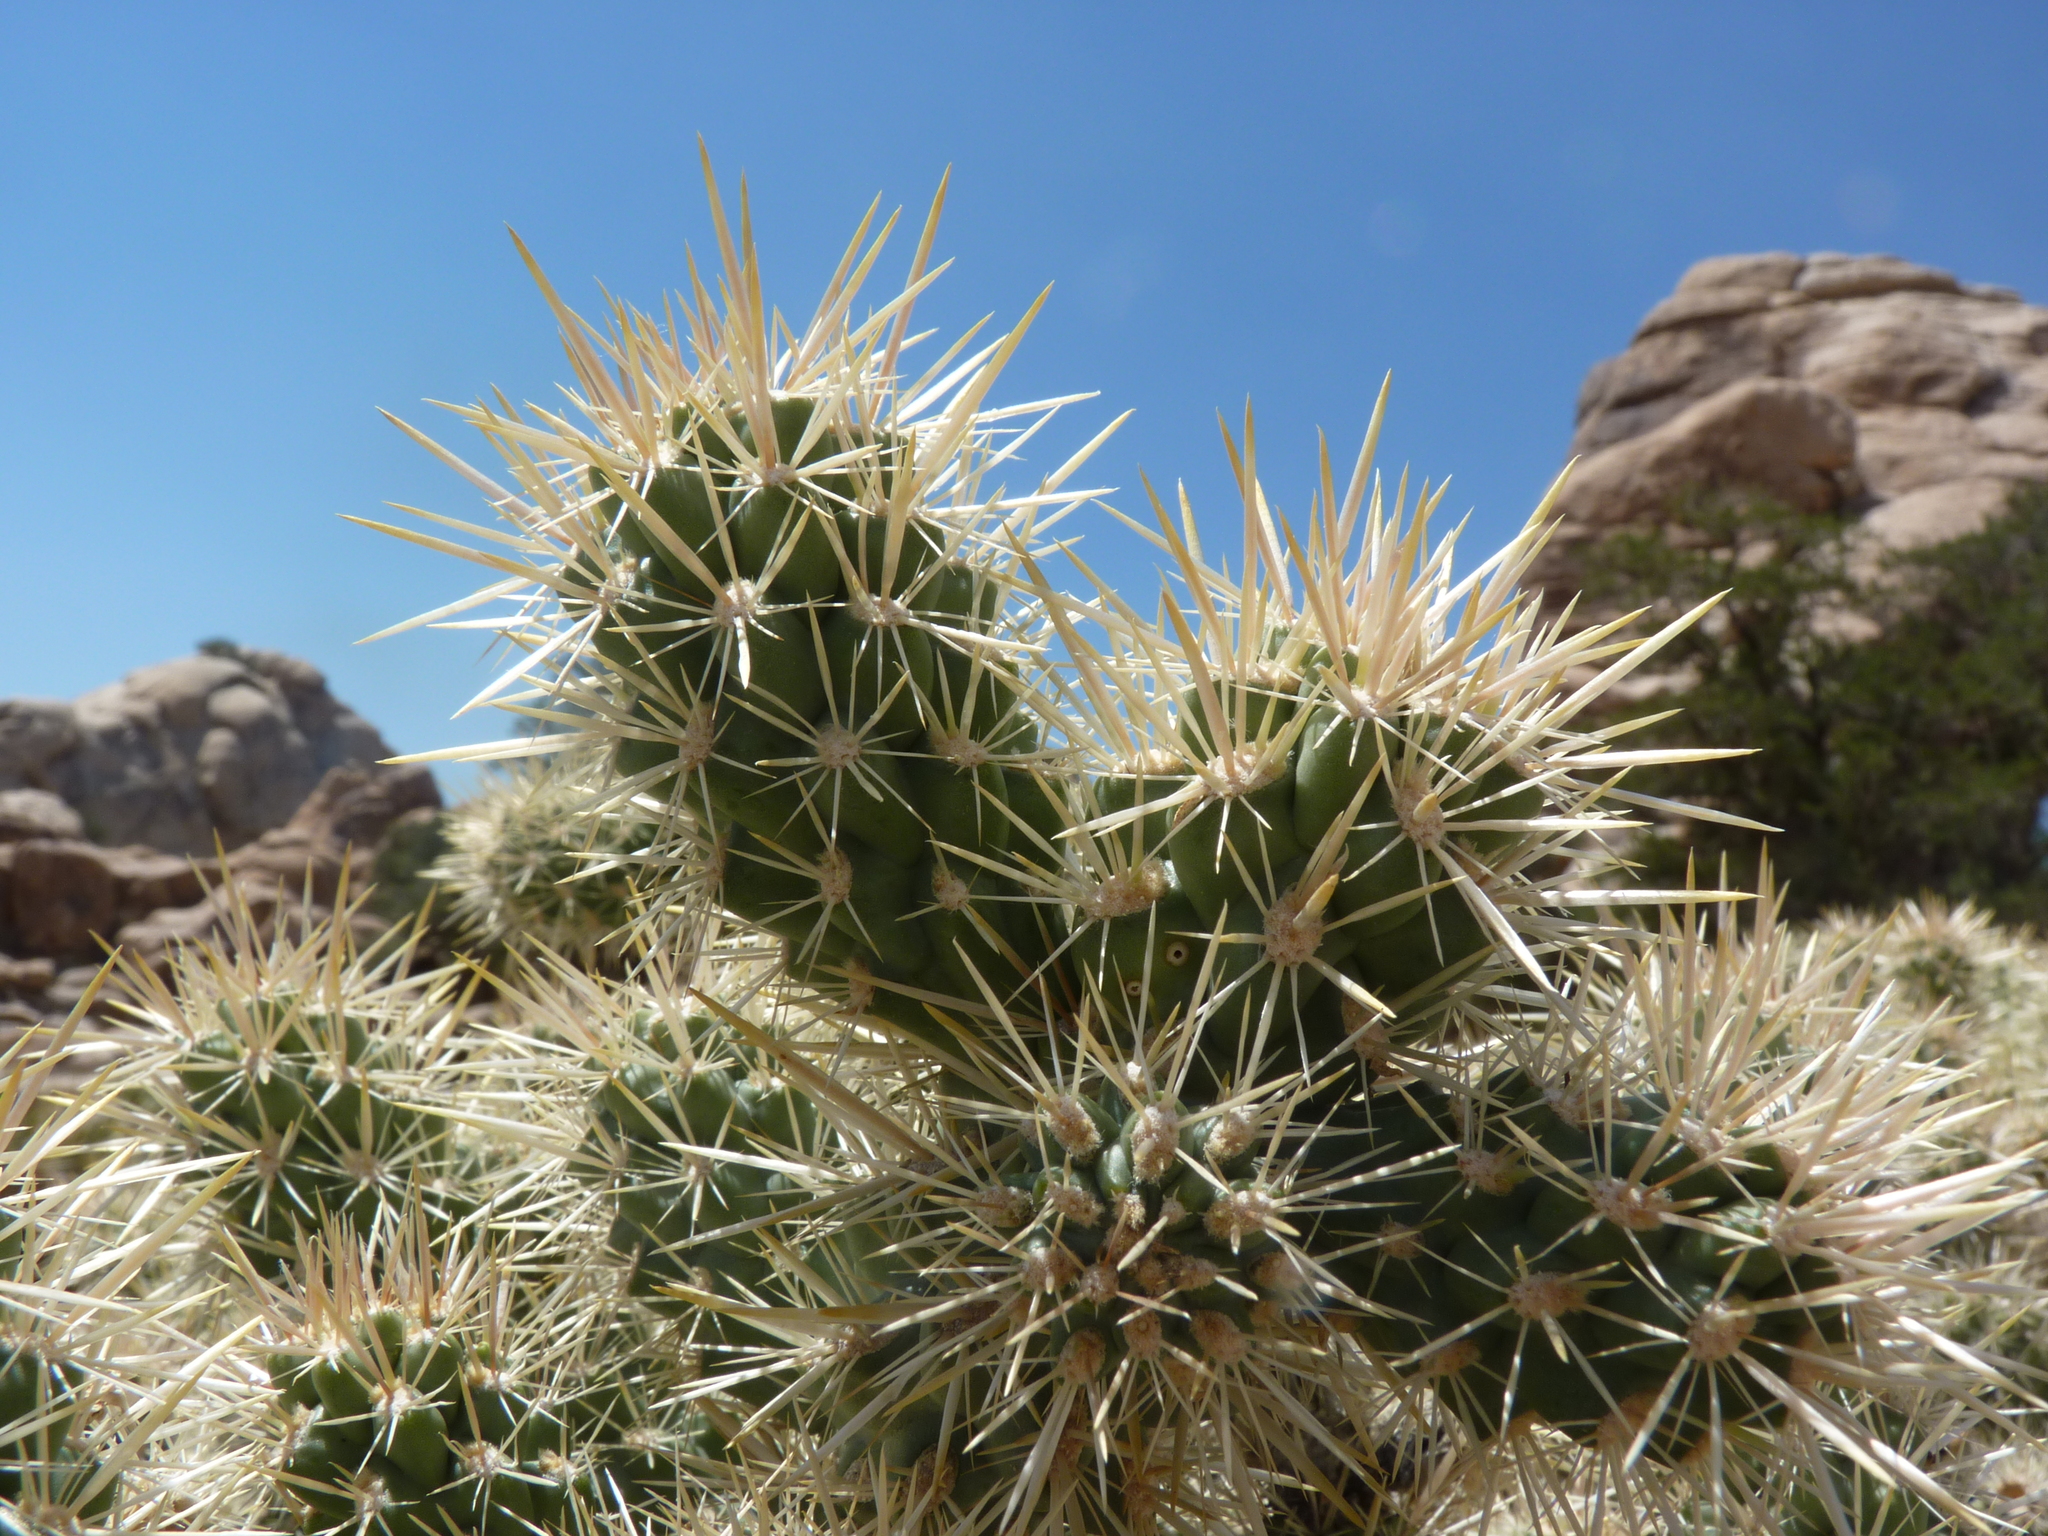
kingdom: Plantae
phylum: Tracheophyta
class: Magnoliopsida
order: Caryophyllales
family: Cactaceae
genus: Cylindropuntia
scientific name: Cylindropuntia echinocarpa
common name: Ground cholla
